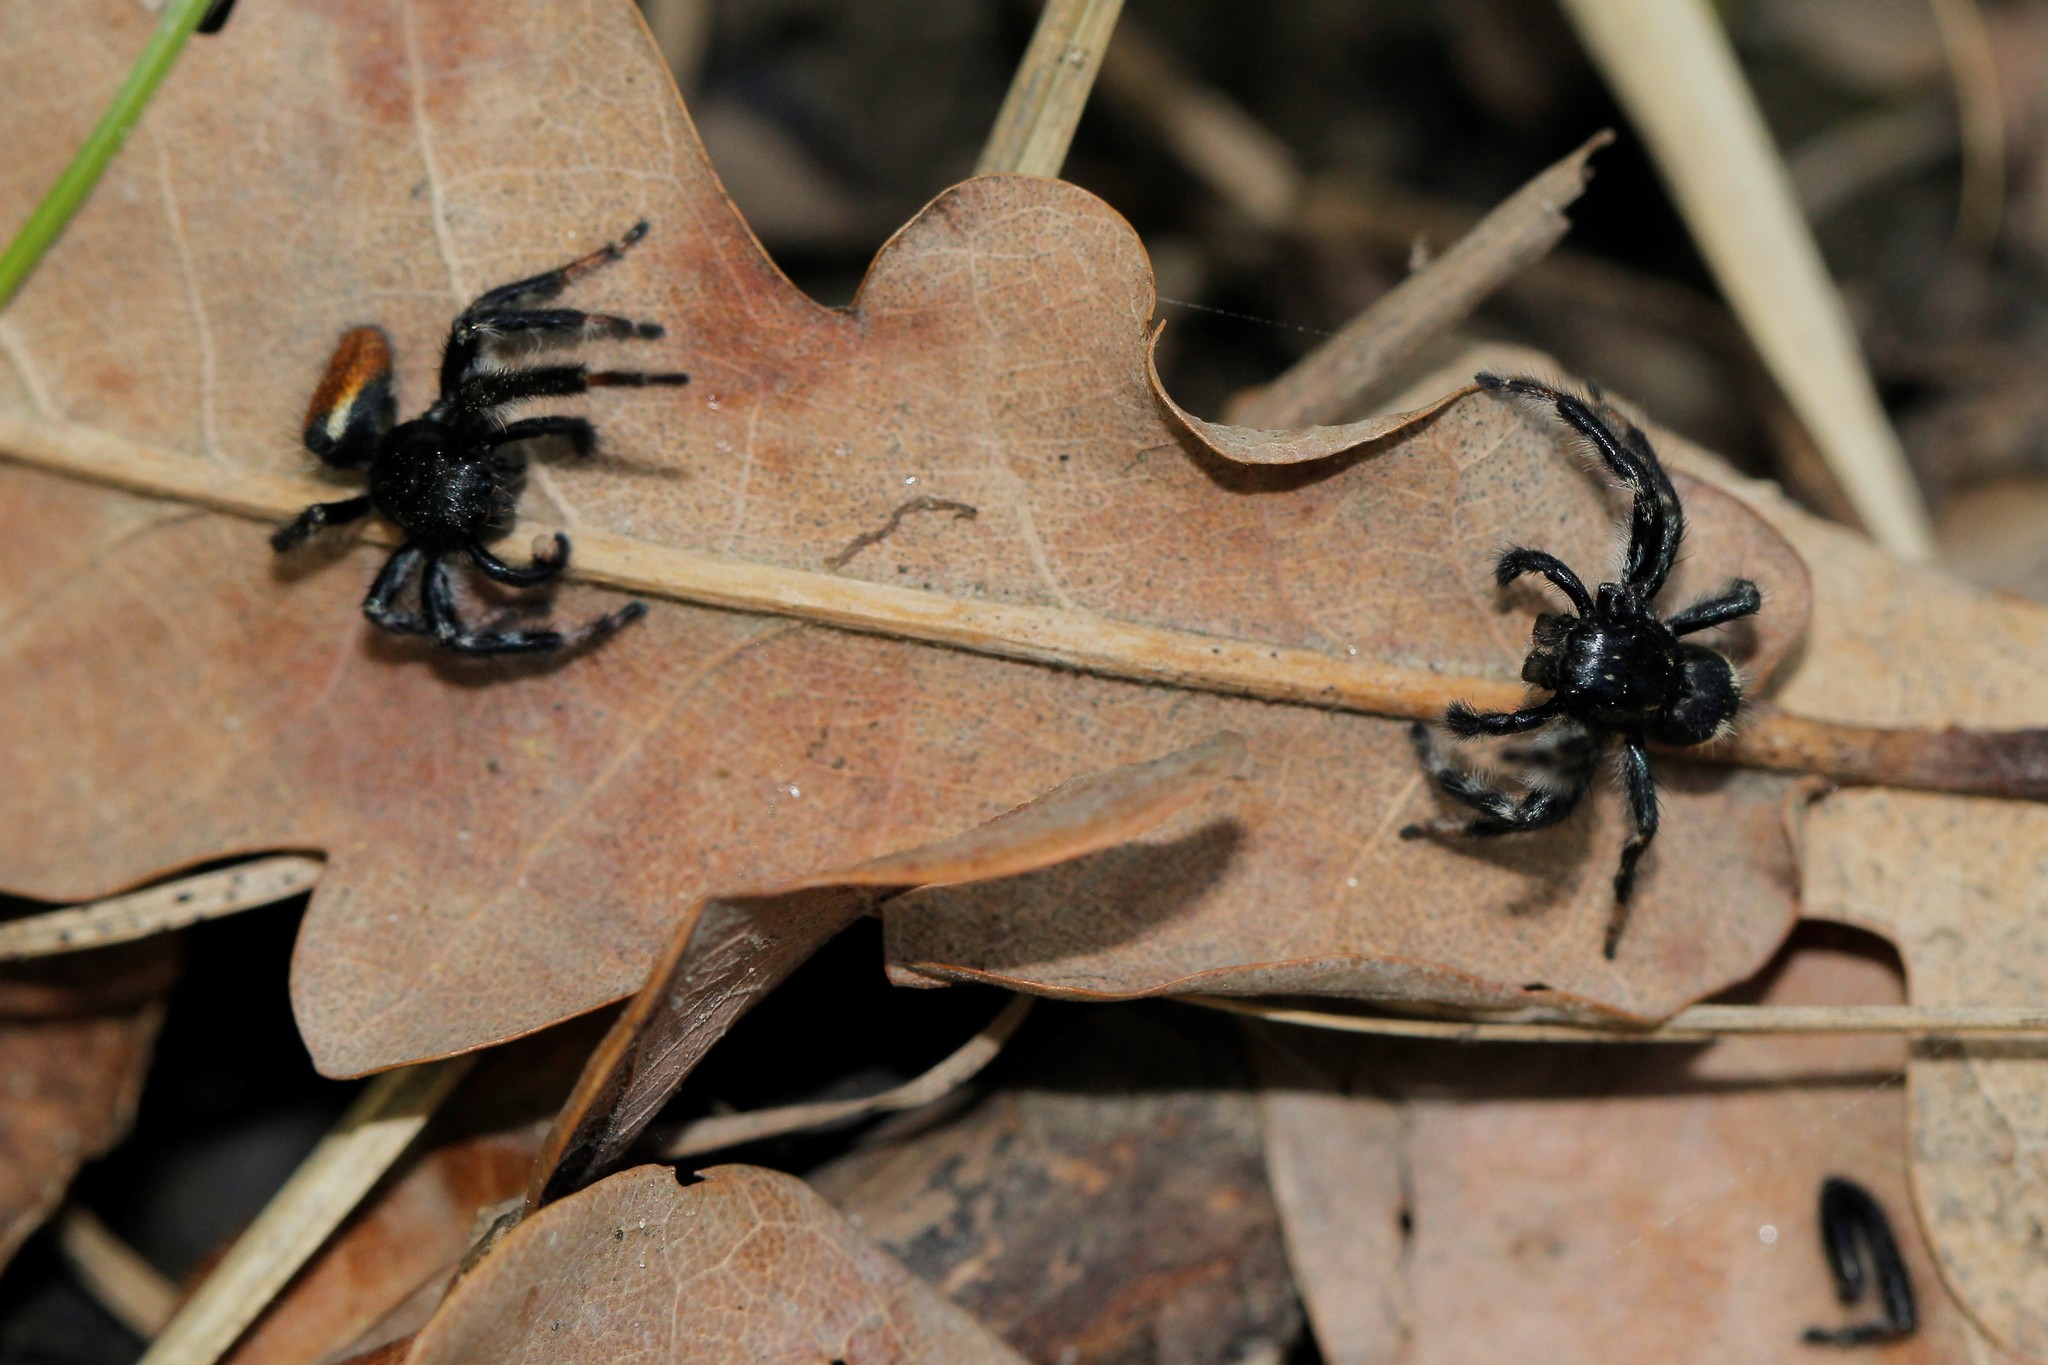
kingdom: Animalia
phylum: Arthropoda
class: Arachnida
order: Araneae
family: Salticidae
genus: Carrhotus
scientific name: Carrhotus xanthogramma
